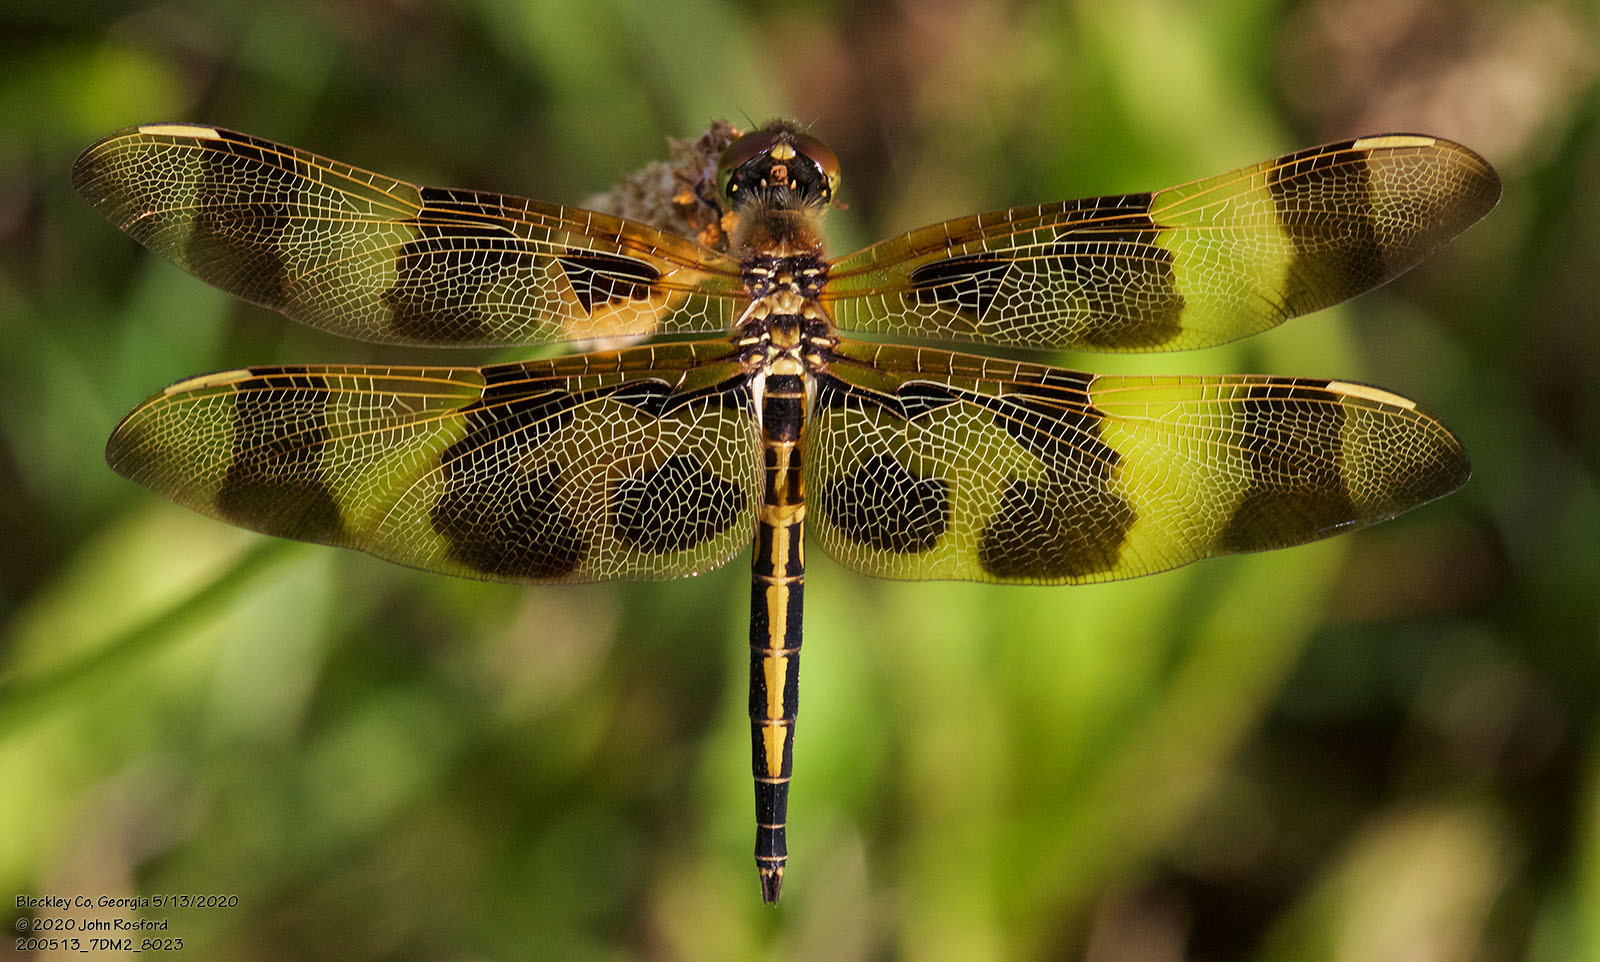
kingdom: Animalia
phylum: Arthropoda
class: Insecta
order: Odonata
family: Libellulidae
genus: Celithemis
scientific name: Celithemis eponina
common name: Halloween pennant
